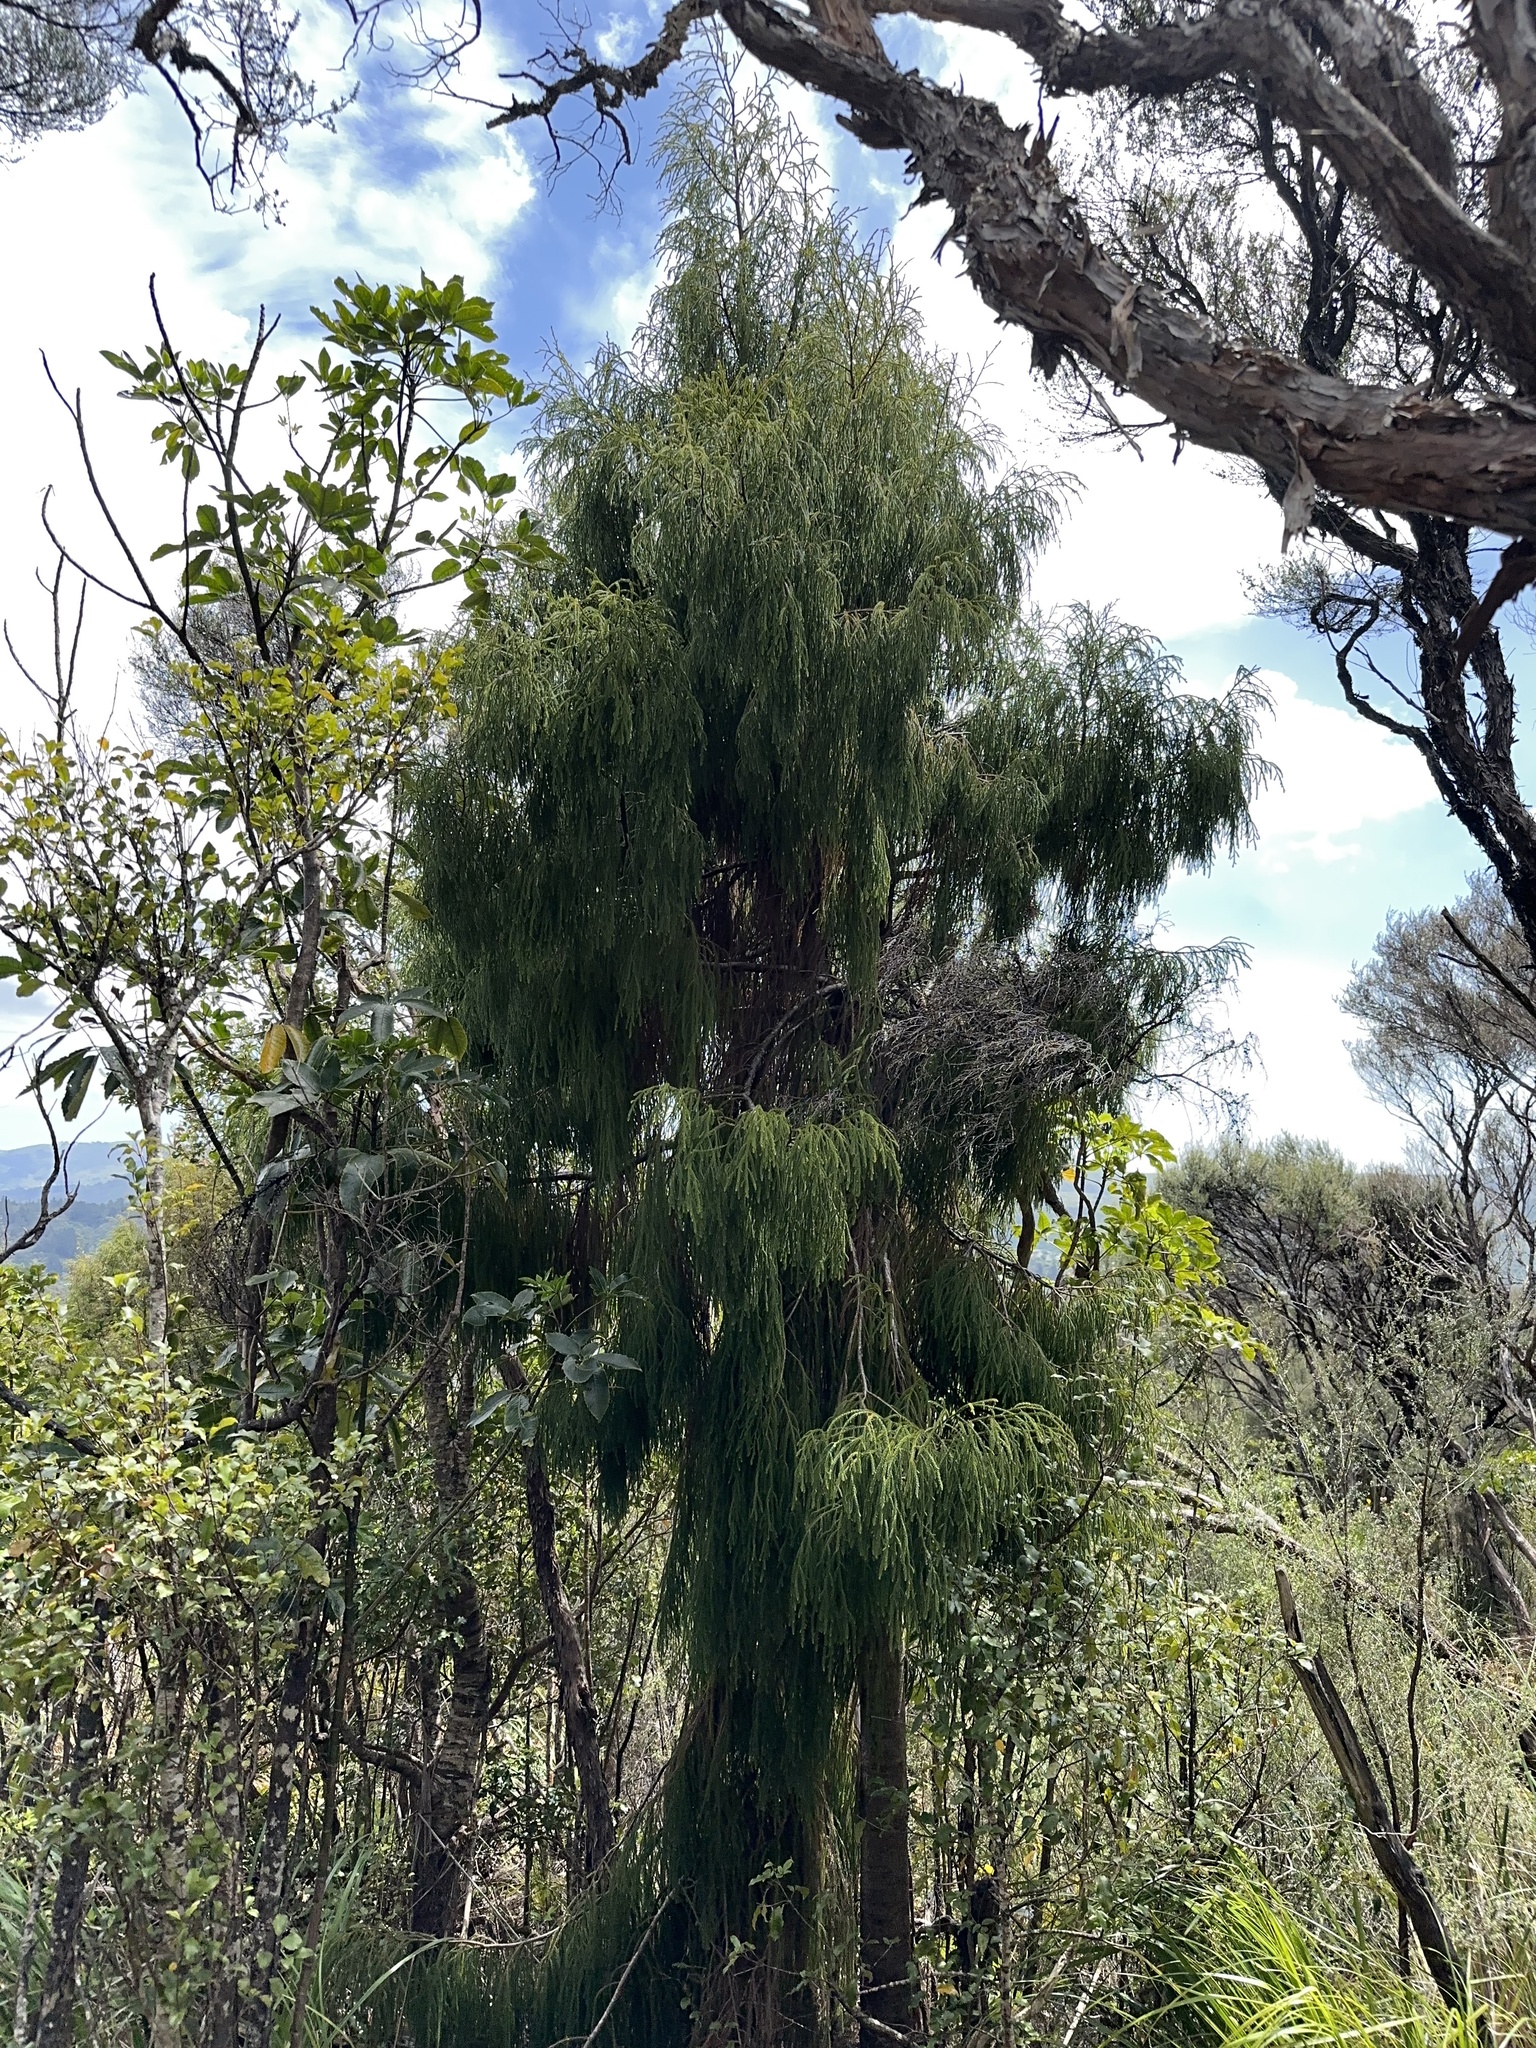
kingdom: Plantae
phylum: Tracheophyta
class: Pinopsida
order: Pinales
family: Podocarpaceae
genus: Dacrydium
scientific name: Dacrydium cupressinum
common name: Red pine
